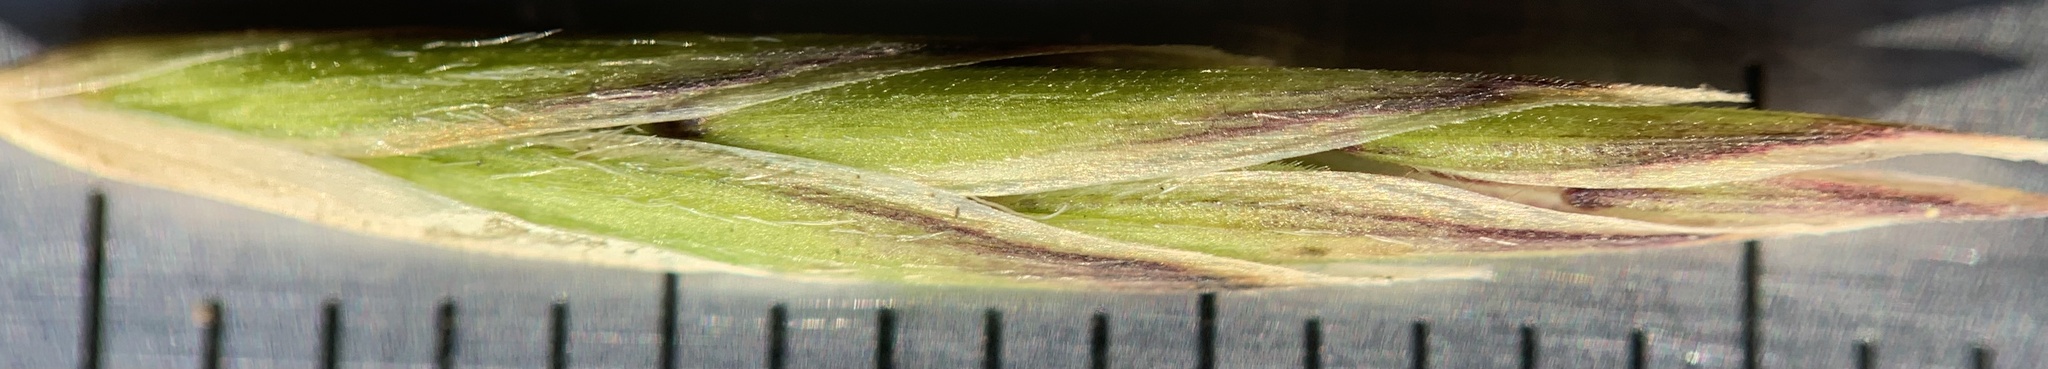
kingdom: Plantae
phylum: Tracheophyta
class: Liliopsida
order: Poales
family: Poaceae
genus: Melica
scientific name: Melica subulata
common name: Tapered oniongrass
